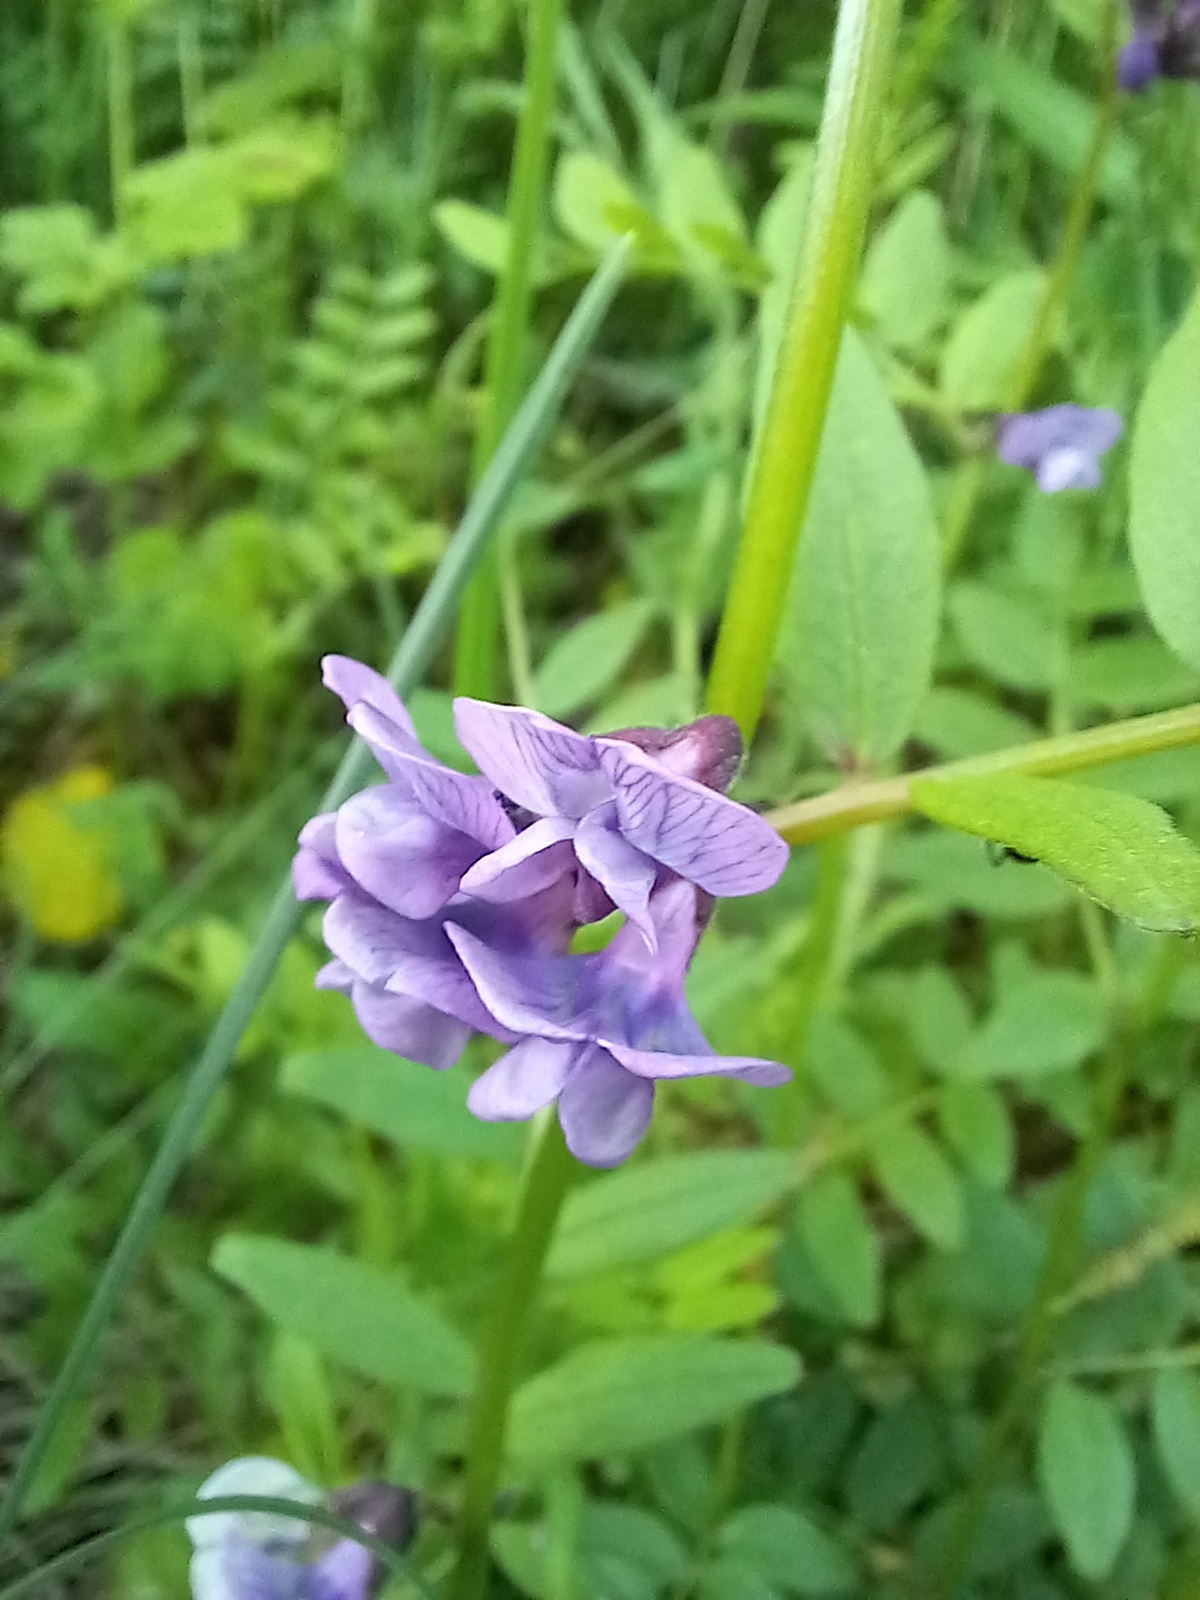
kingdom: Plantae
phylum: Tracheophyta
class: Magnoliopsida
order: Fabales
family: Fabaceae
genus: Vicia
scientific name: Vicia sepium
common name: Bush vetch
